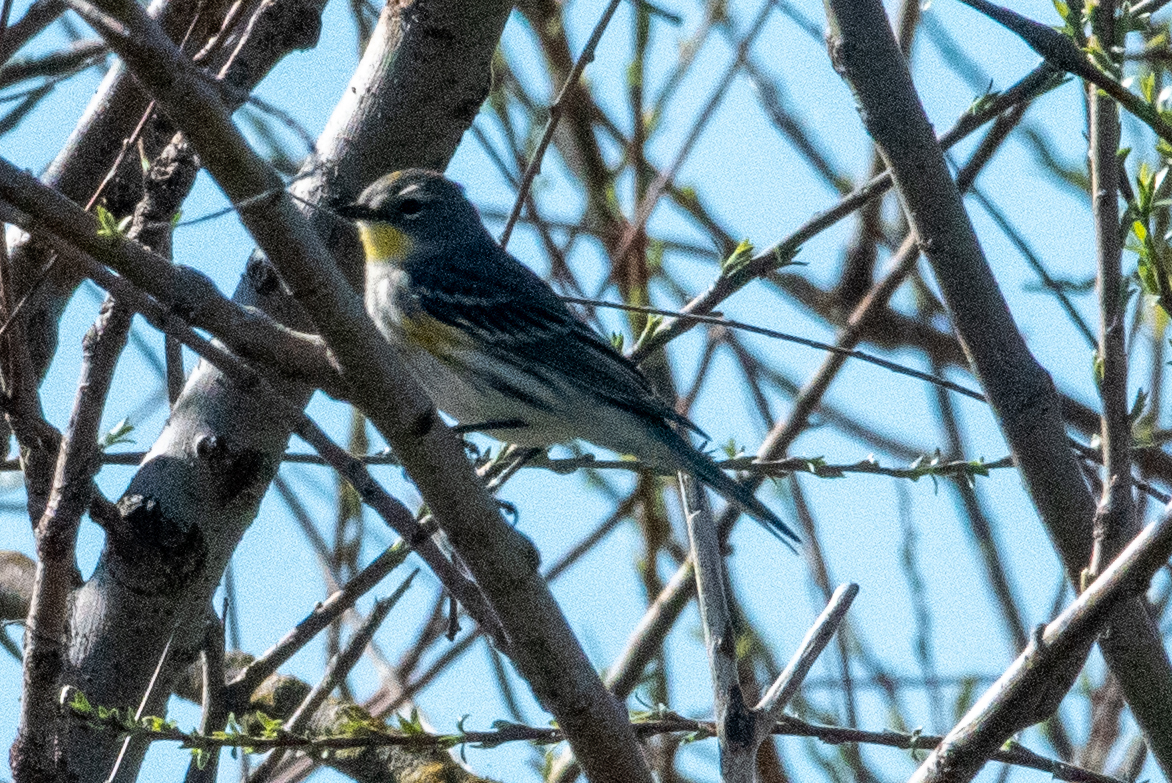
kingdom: Animalia
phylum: Chordata
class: Aves
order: Passeriformes
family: Parulidae
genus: Setophaga
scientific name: Setophaga coronata
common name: Myrtle warbler
